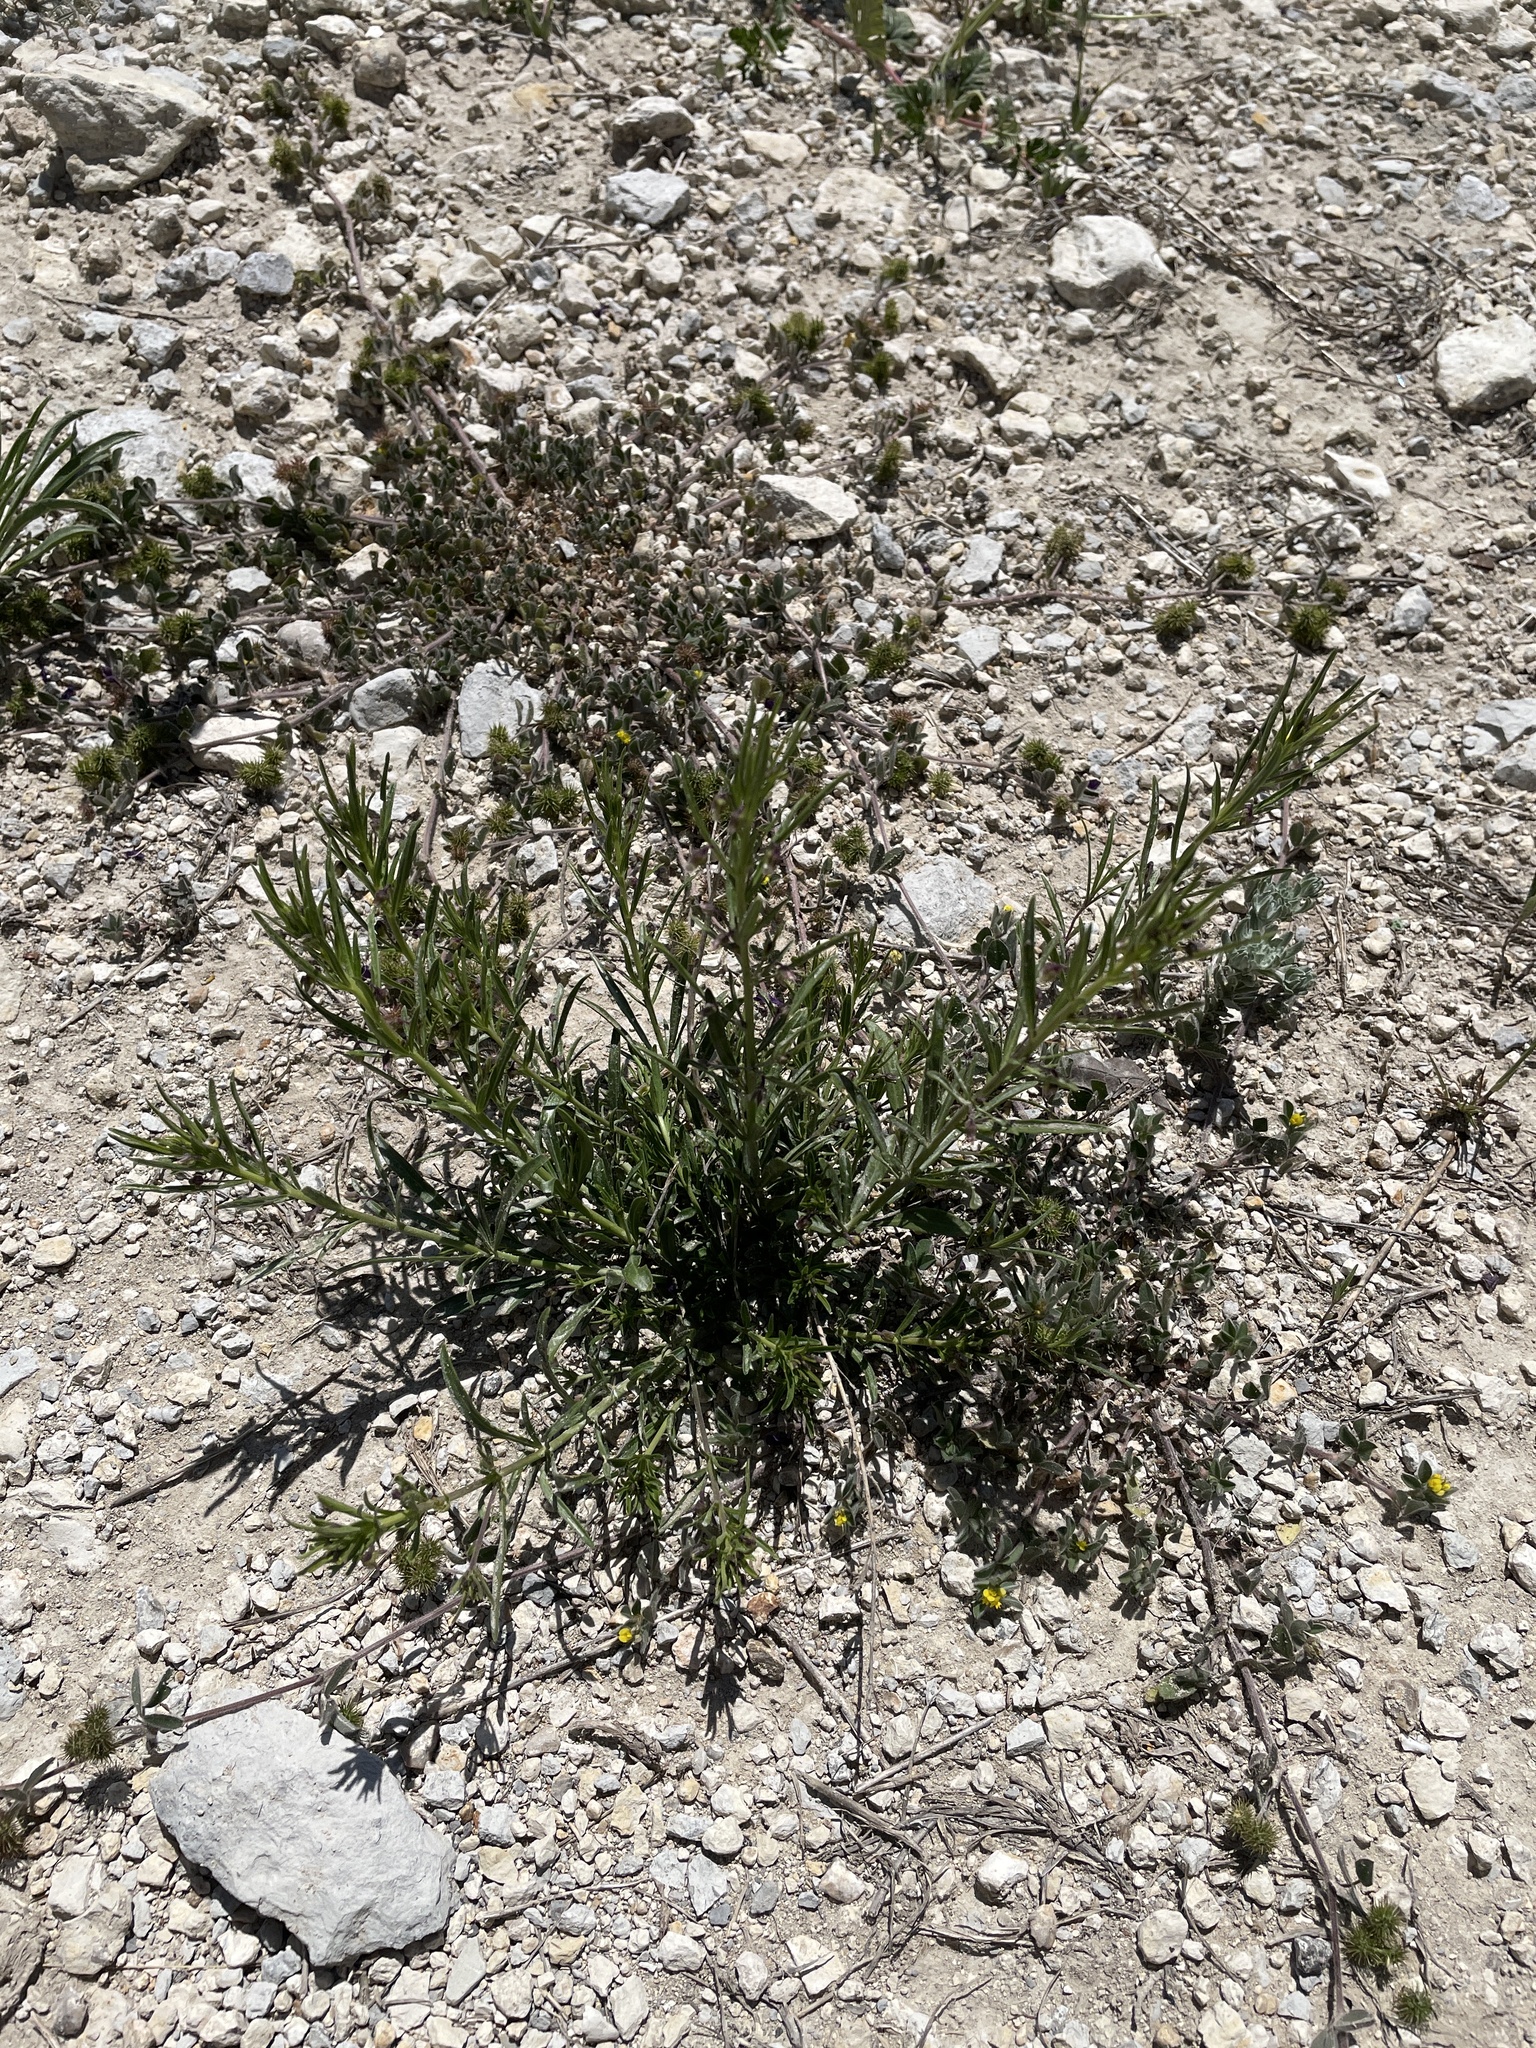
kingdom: Plantae
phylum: Tracheophyta
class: Magnoliopsida
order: Malpighiales
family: Violaceae
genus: Pombalia
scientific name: Pombalia verticillata
